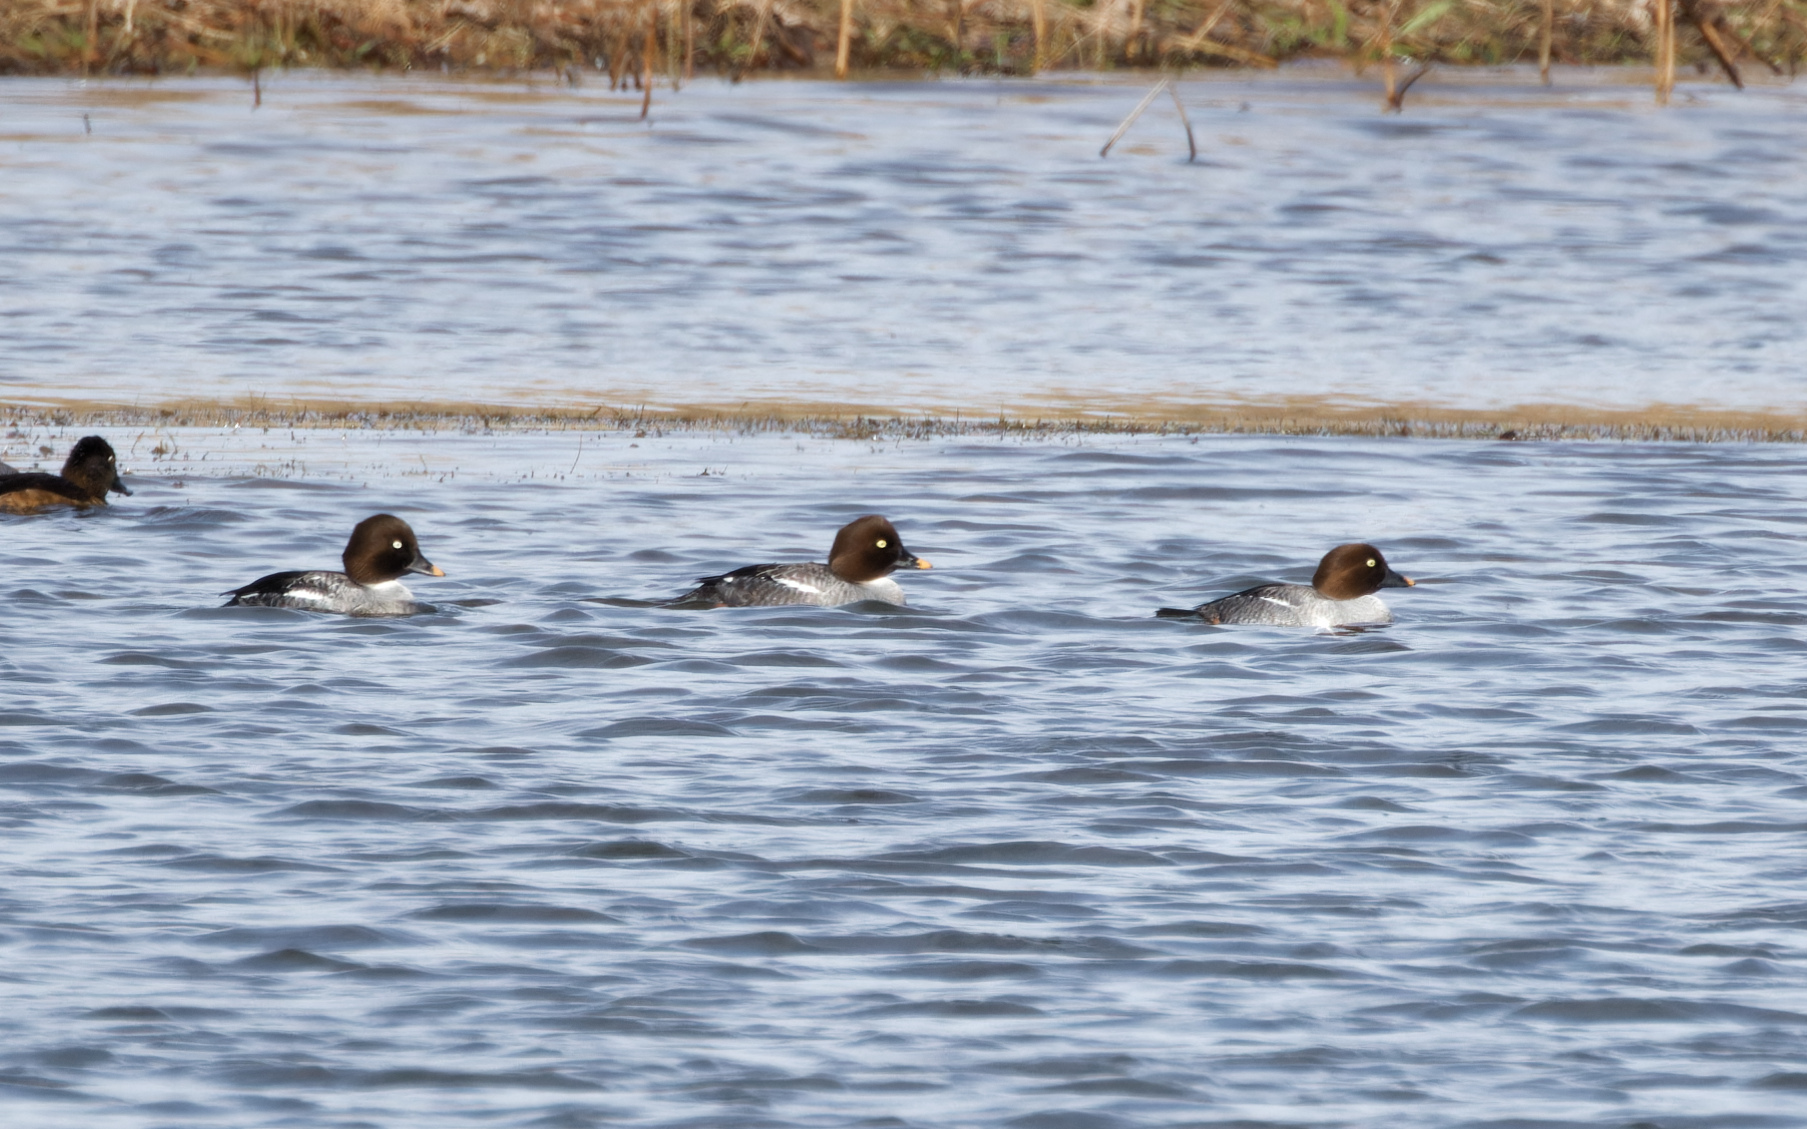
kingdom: Animalia
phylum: Chordata
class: Aves
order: Anseriformes
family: Anatidae
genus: Bucephala
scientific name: Bucephala clangula
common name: Common goldeneye
